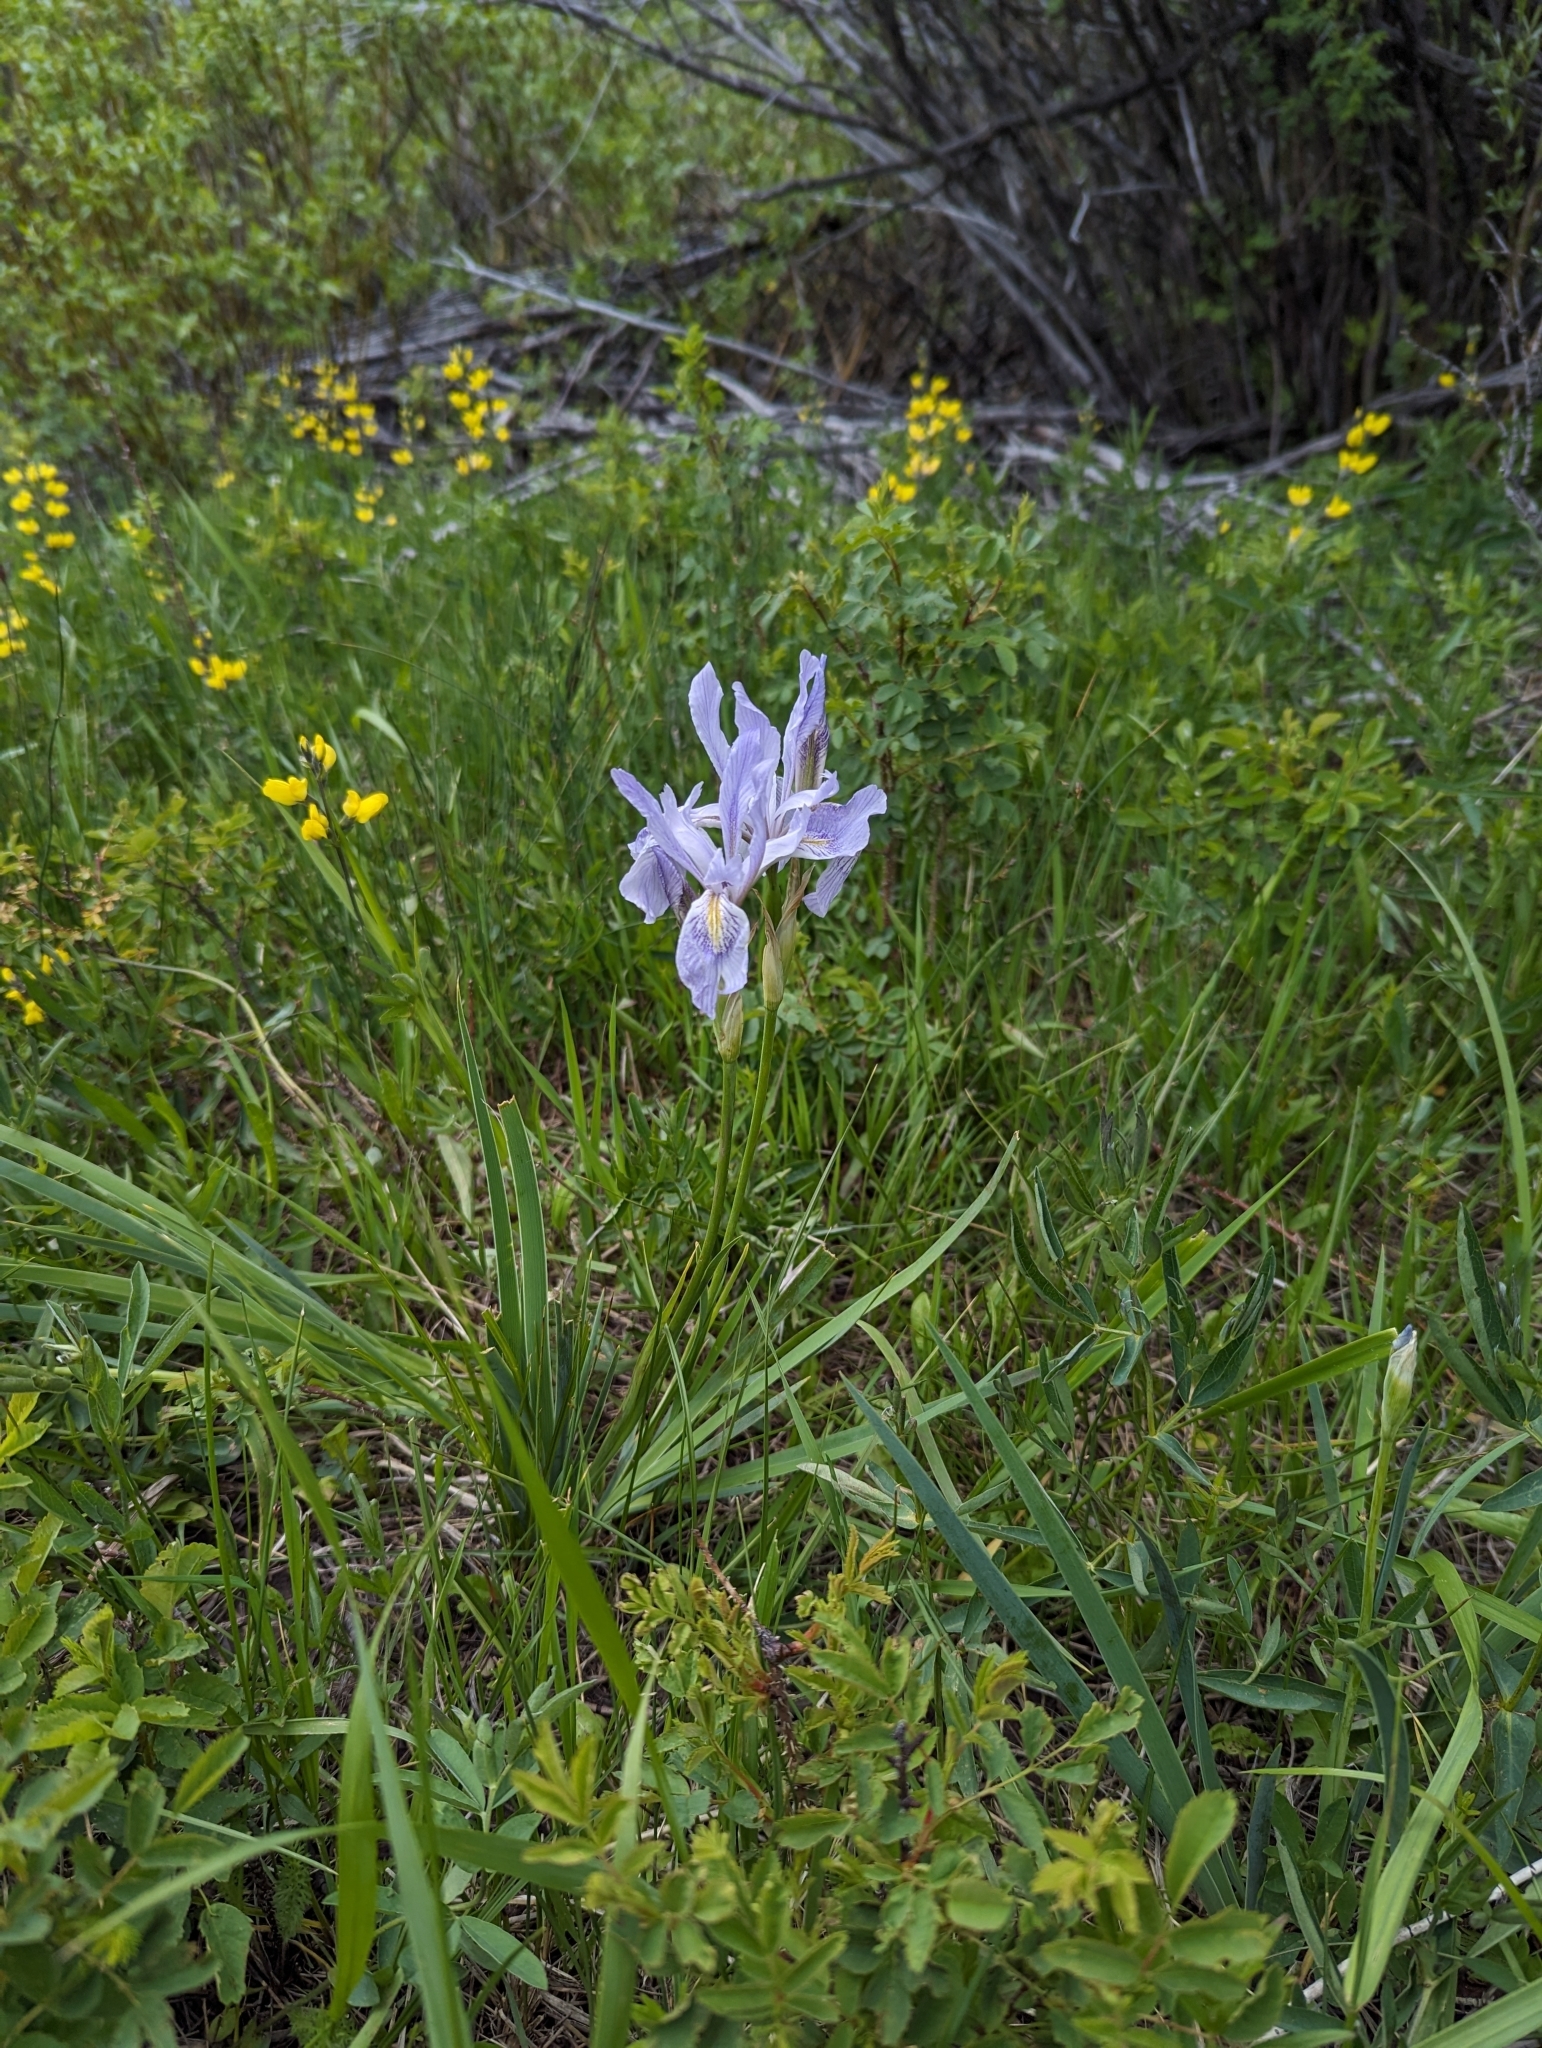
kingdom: Plantae
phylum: Tracheophyta
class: Liliopsida
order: Asparagales
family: Iridaceae
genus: Iris
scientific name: Iris missouriensis
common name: Rocky mountain iris
